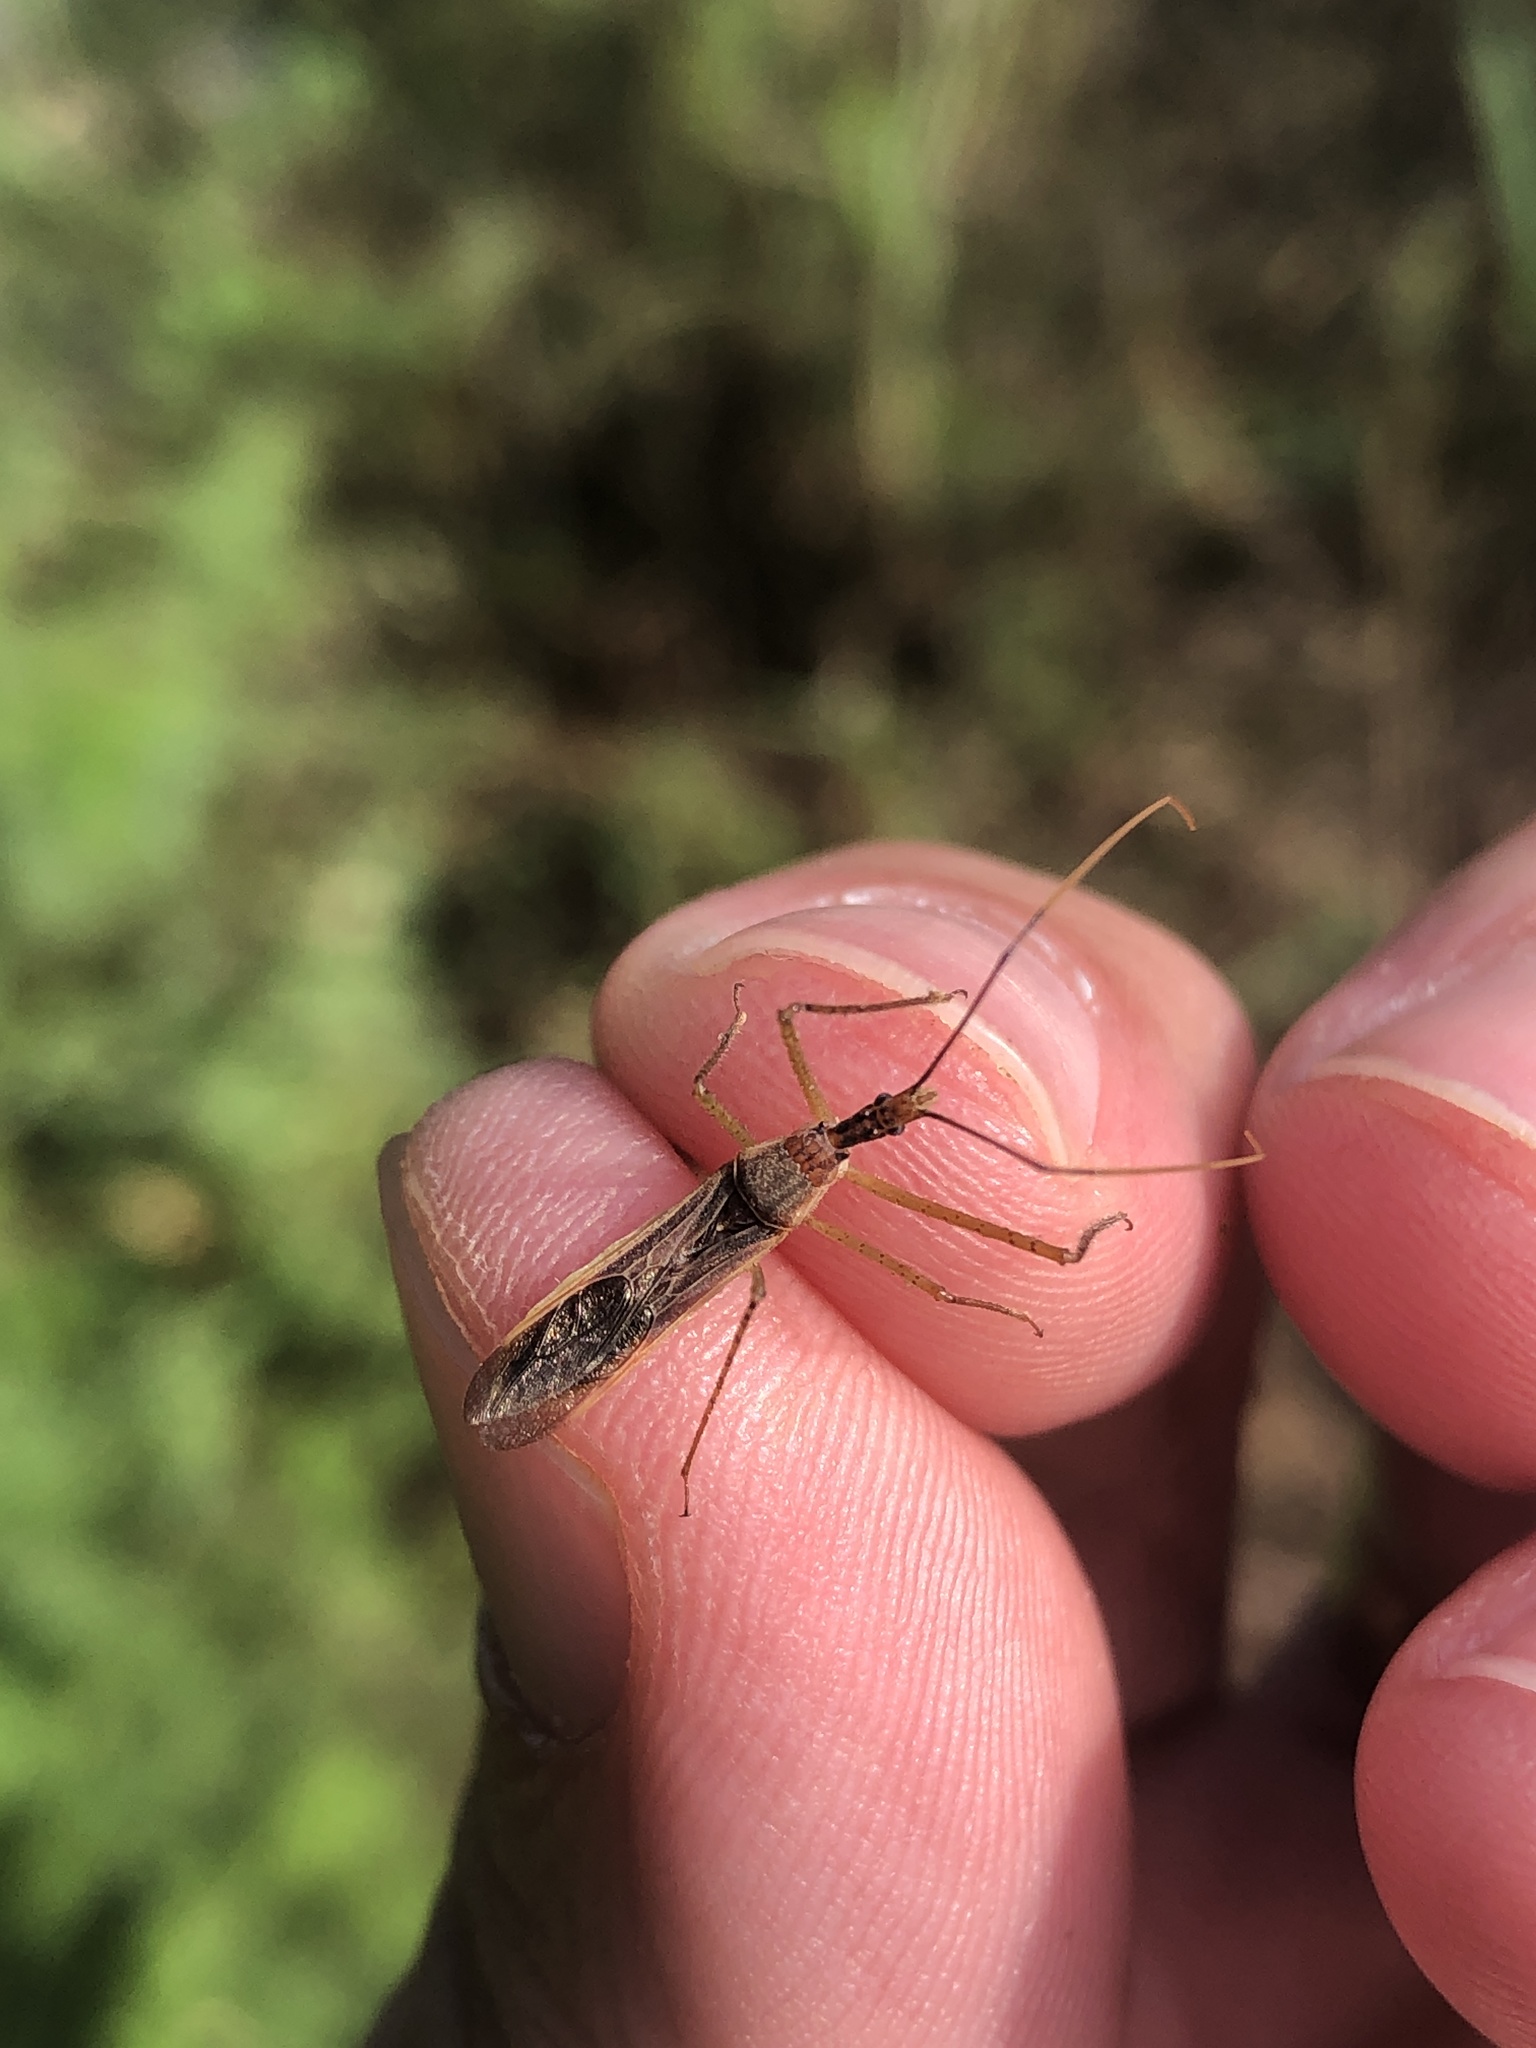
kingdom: Animalia
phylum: Arthropoda
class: Insecta
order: Hemiptera
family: Reduviidae
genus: Zelus
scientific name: Zelus cervicalis
